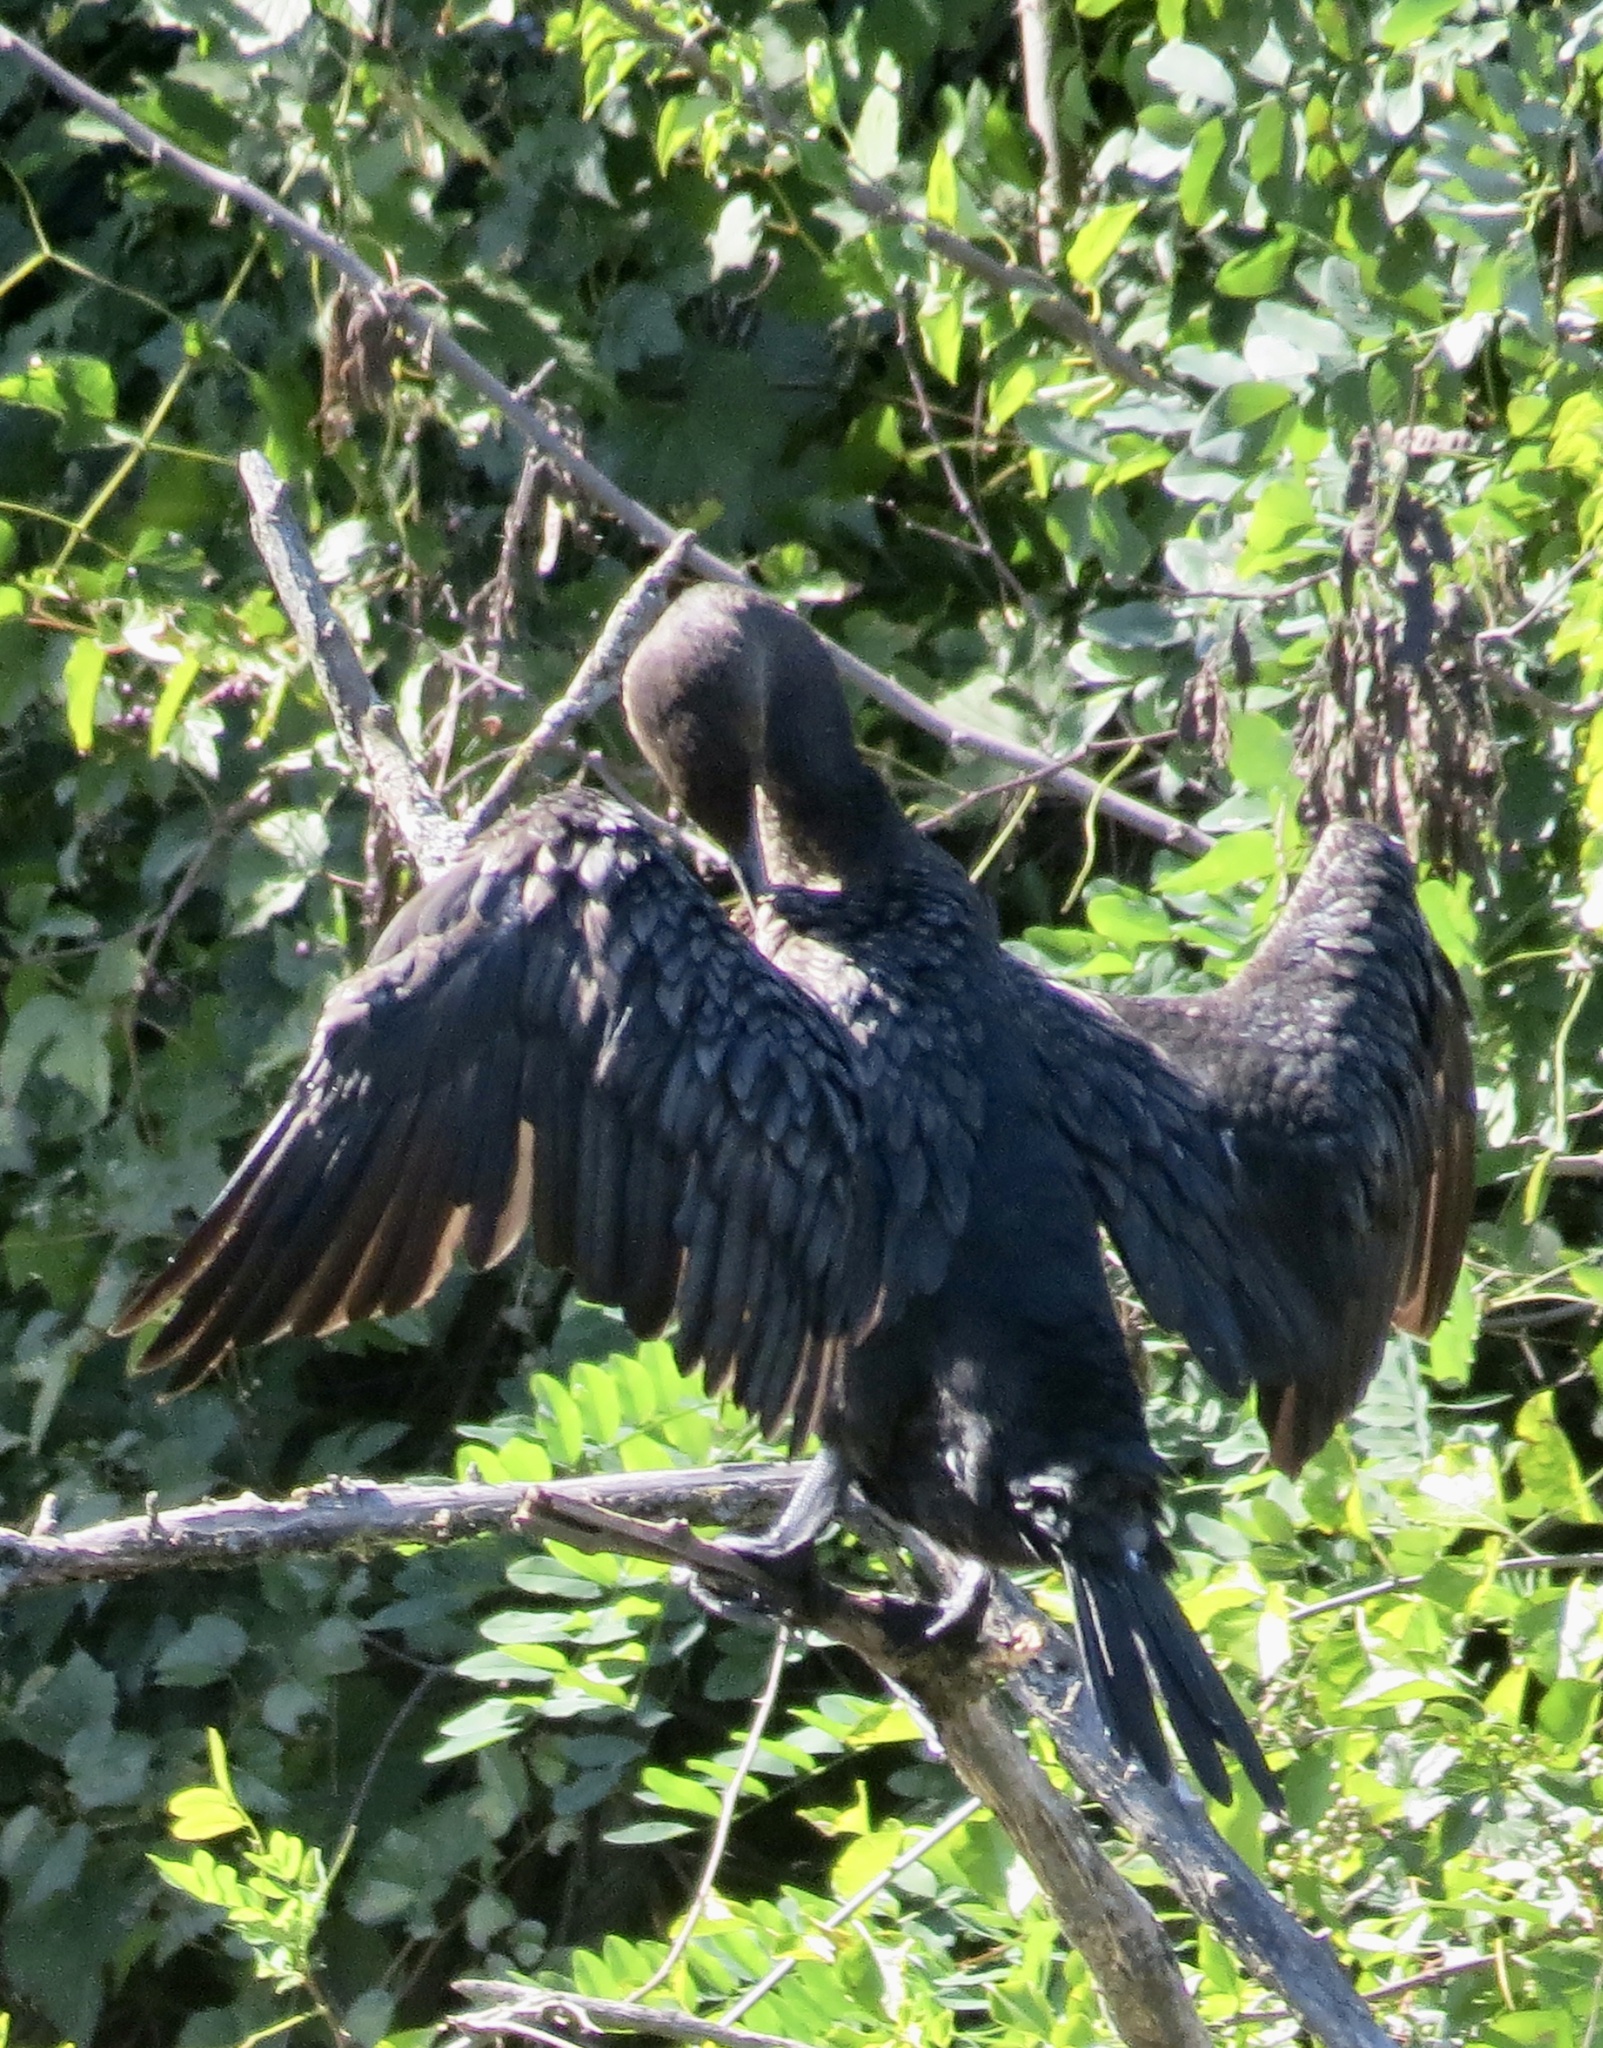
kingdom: Animalia
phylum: Chordata
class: Aves
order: Suliformes
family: Phalacrocoracidae
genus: Phalacrocorax
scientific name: Phalacrocorax auritus
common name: Double-crested cormorant
